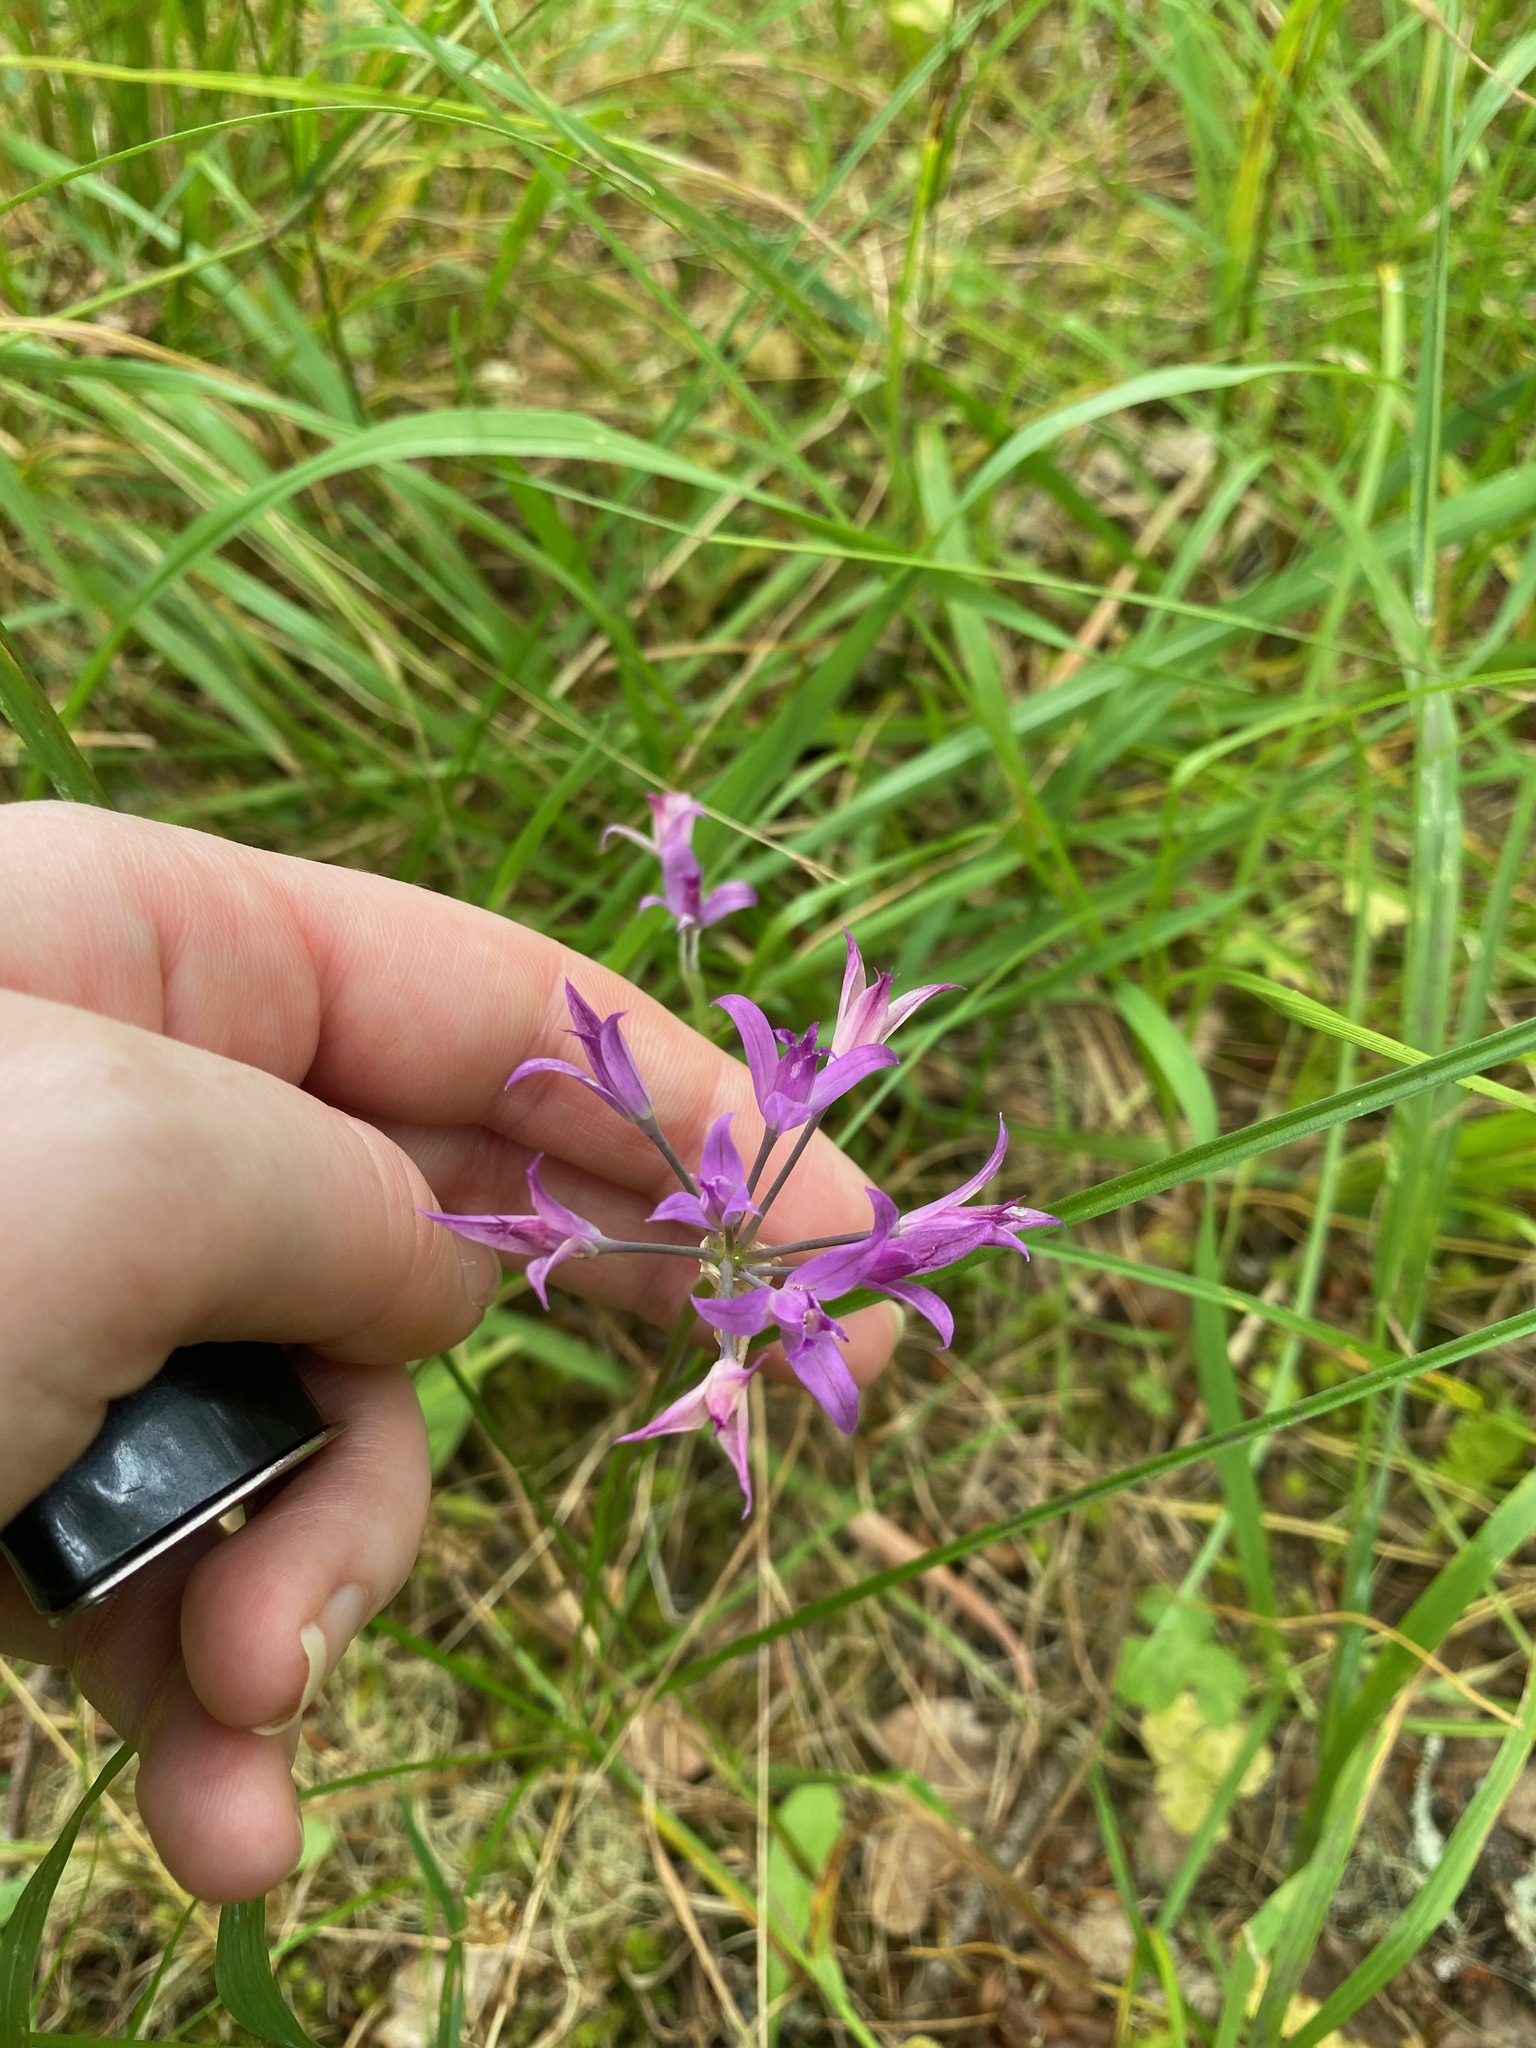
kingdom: Plantae
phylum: Tracheophyta
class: Liliopsida
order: Asparagales
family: Amaryllidaceae
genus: Allium
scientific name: Allium acuminatum
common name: Hooker's onion
